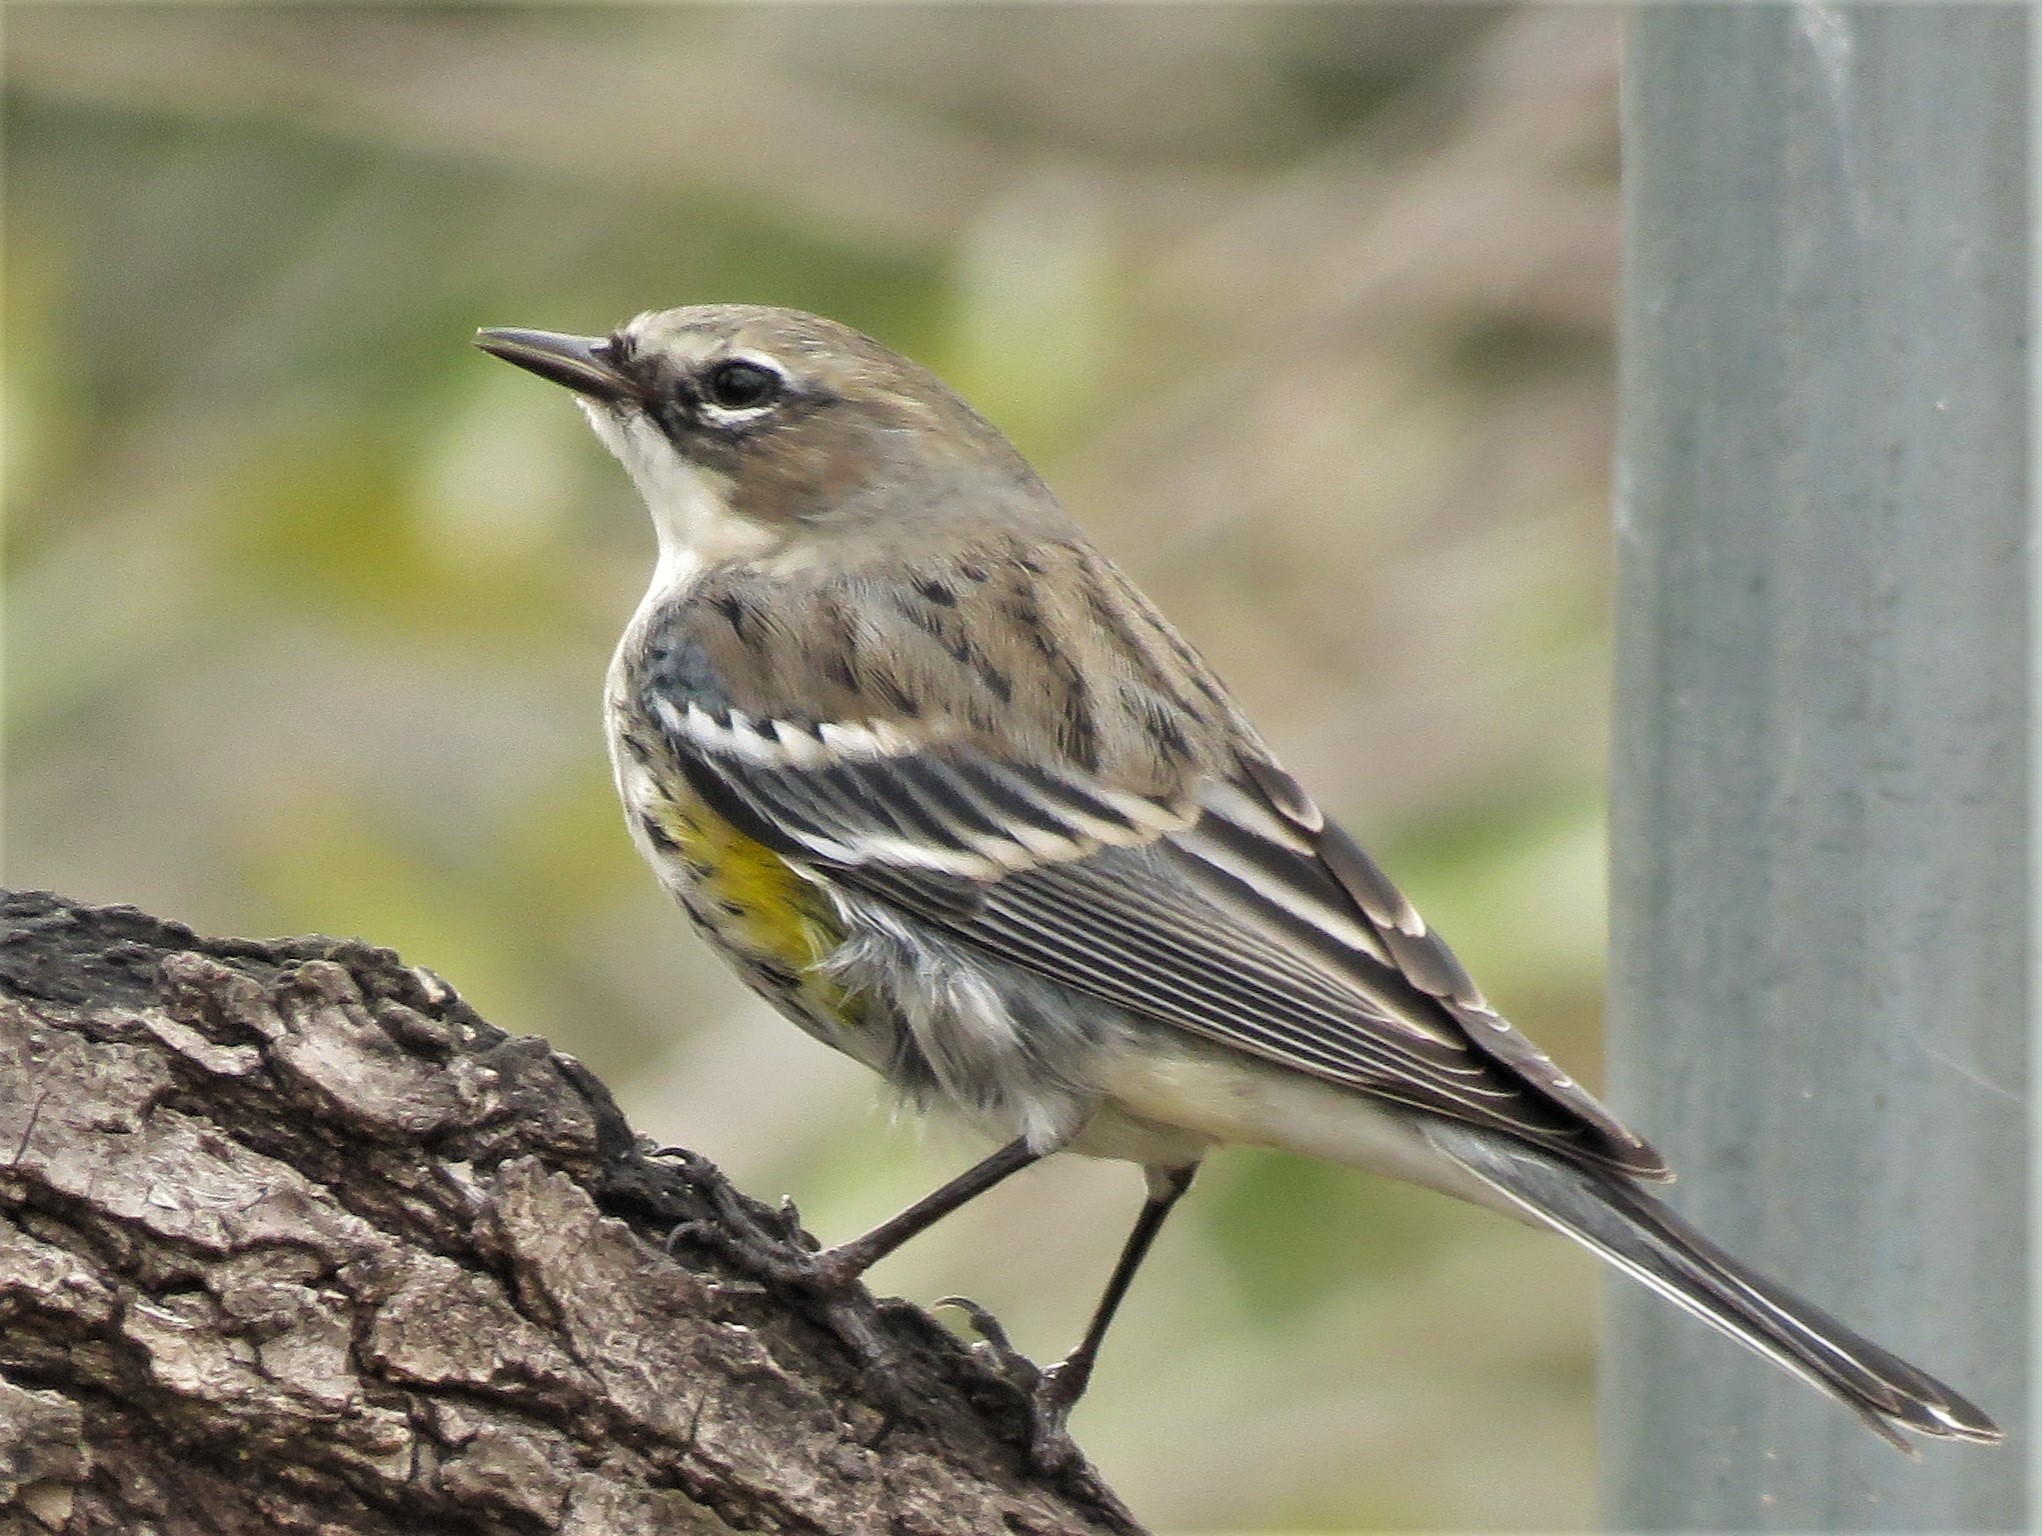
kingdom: Animalia
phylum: Chordata
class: Aves
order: Passeriformes
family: Parulidae
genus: Setophaga
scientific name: Setophaga coronata
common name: Myrtle warbler
